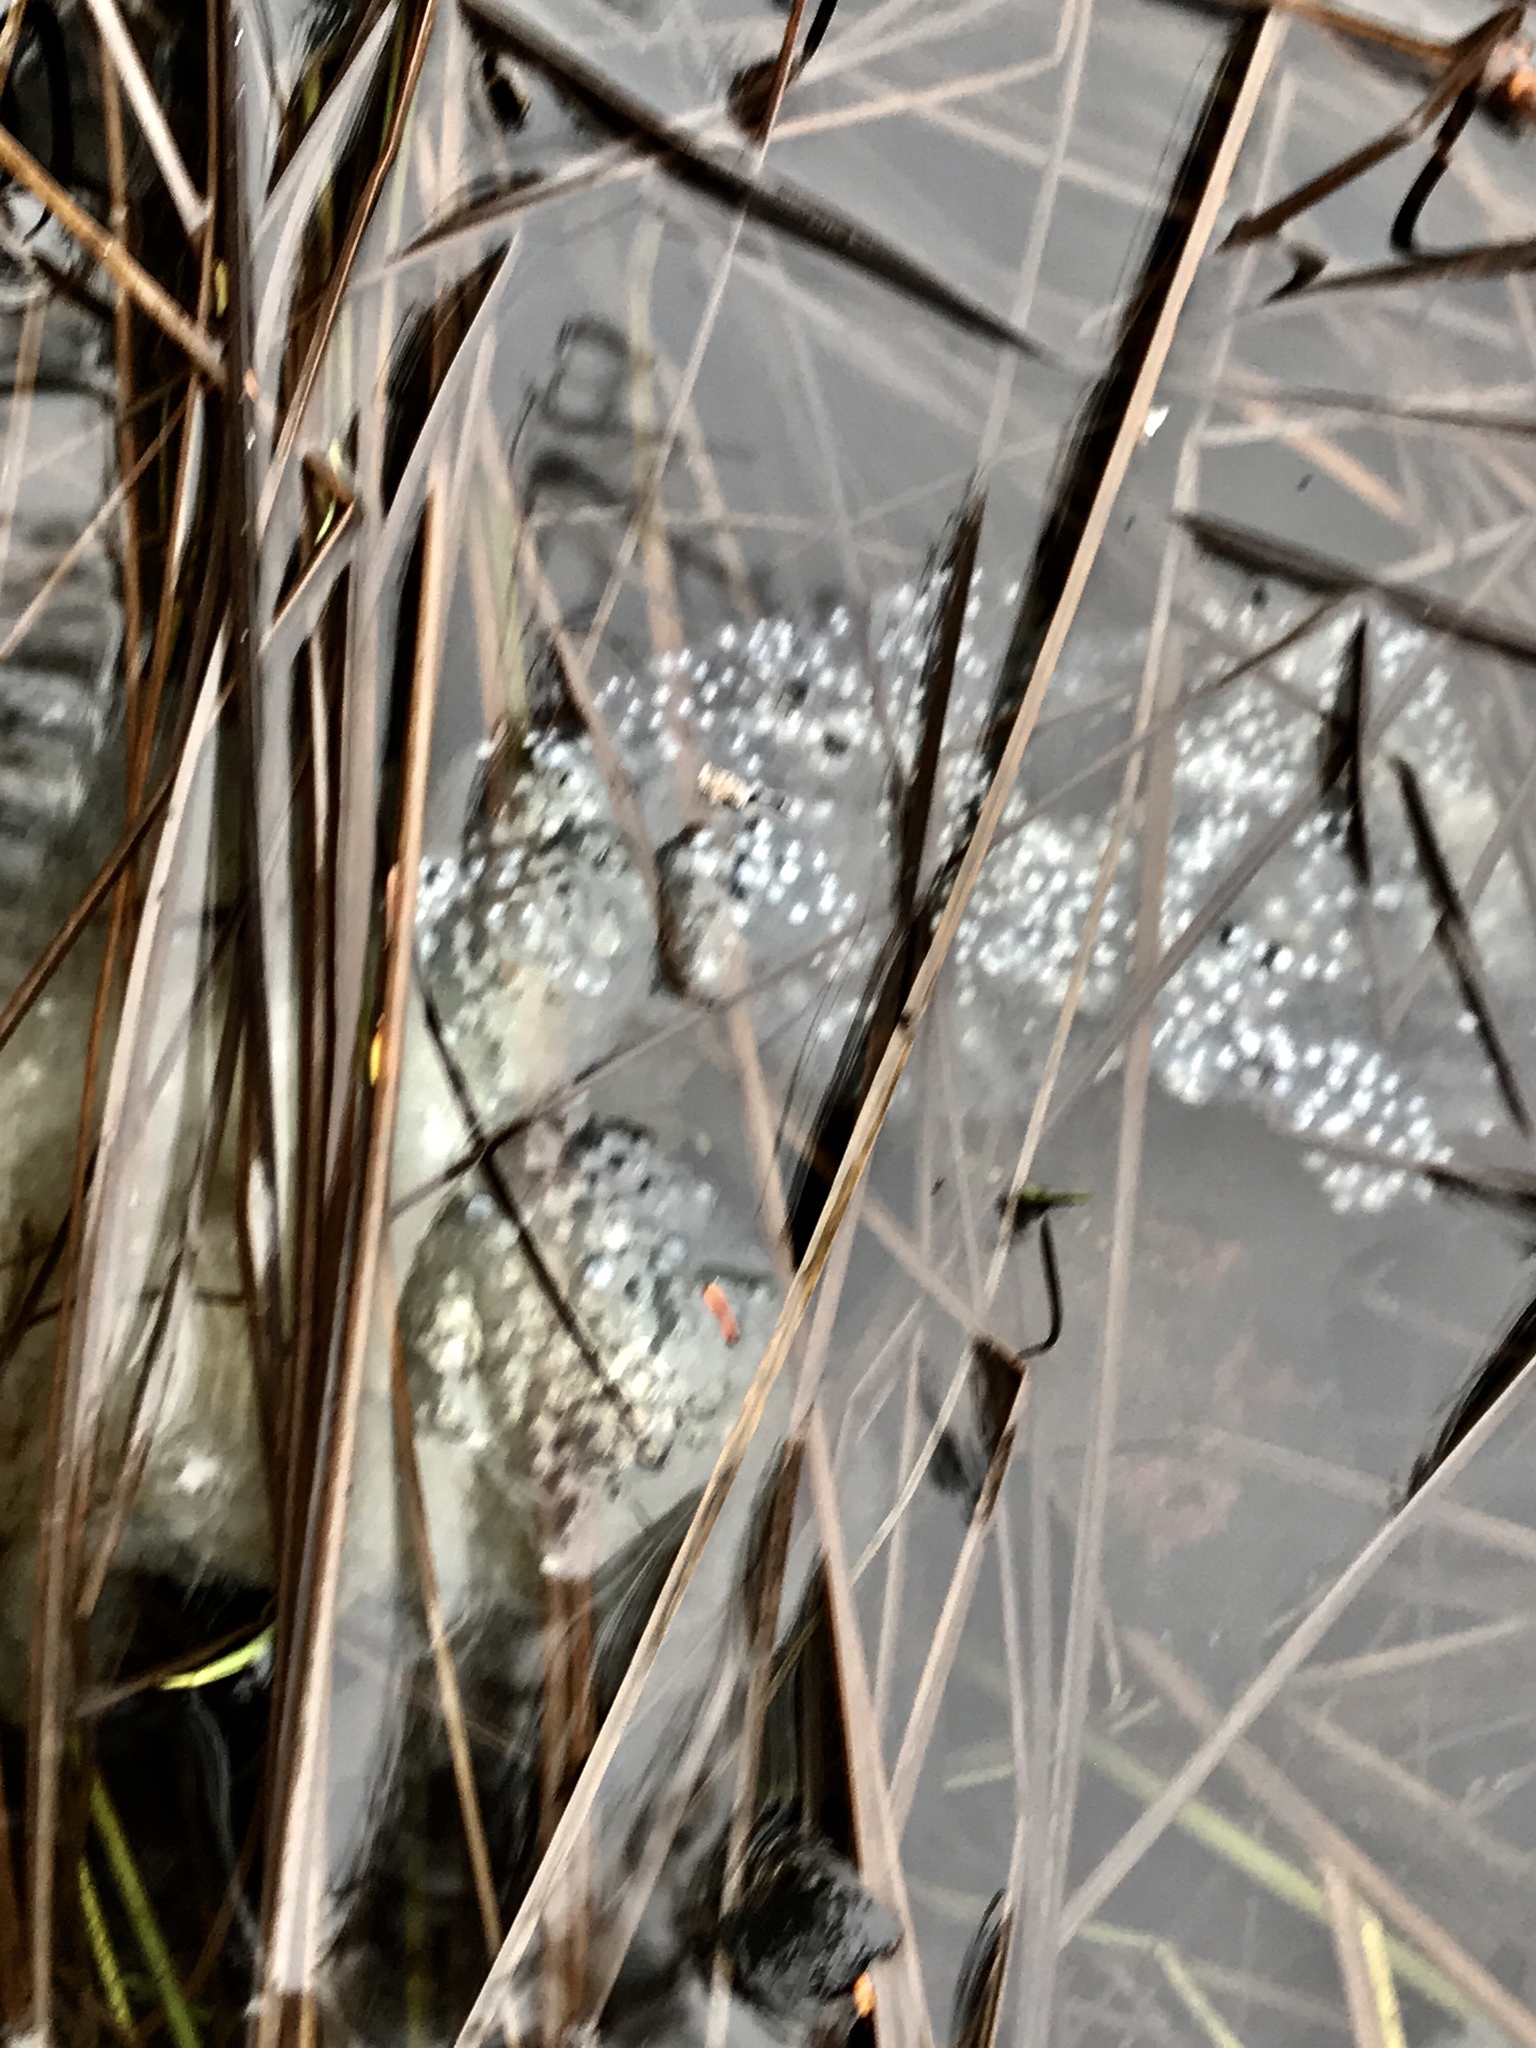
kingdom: Animalia
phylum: Chordata
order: Perciformes
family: Percidae
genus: Perca
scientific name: Perca flavescens
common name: Yellow perch
